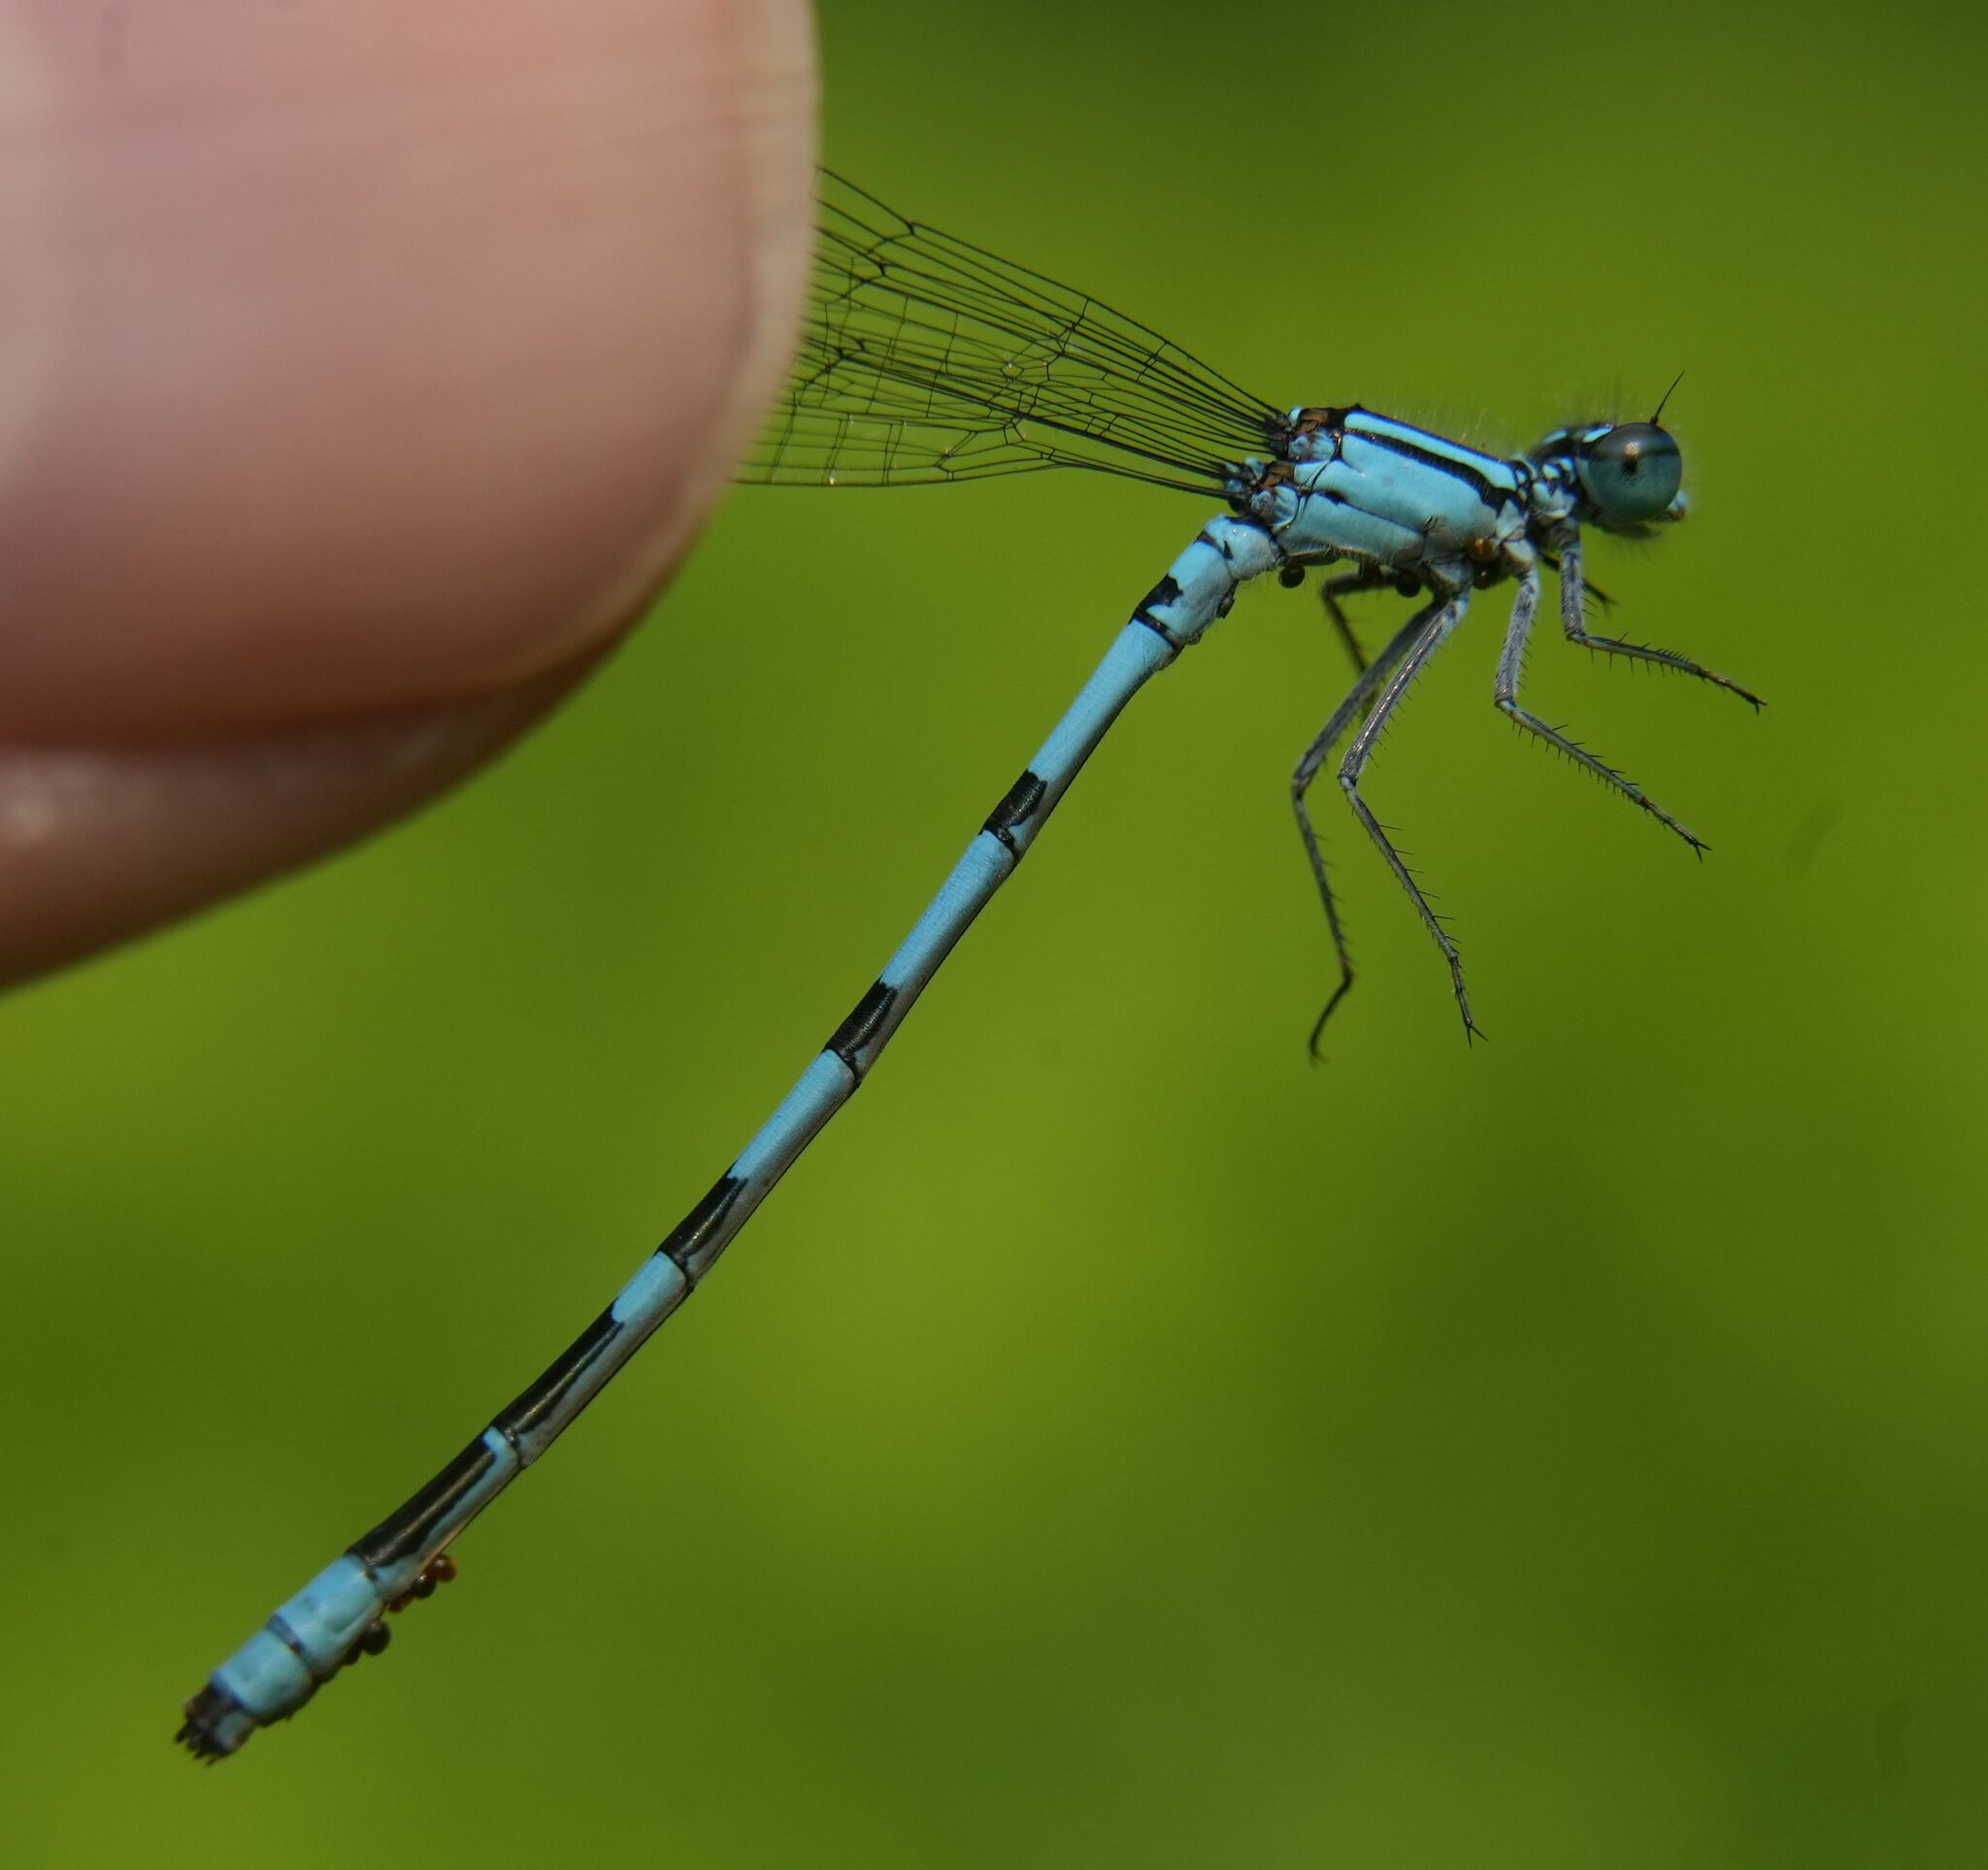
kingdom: Animalia
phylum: Arthropoda
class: Insecta
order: Odonata
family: Coenagrionidae
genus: Enallagma
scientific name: Enallagma ebrium
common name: Marsh bluet
